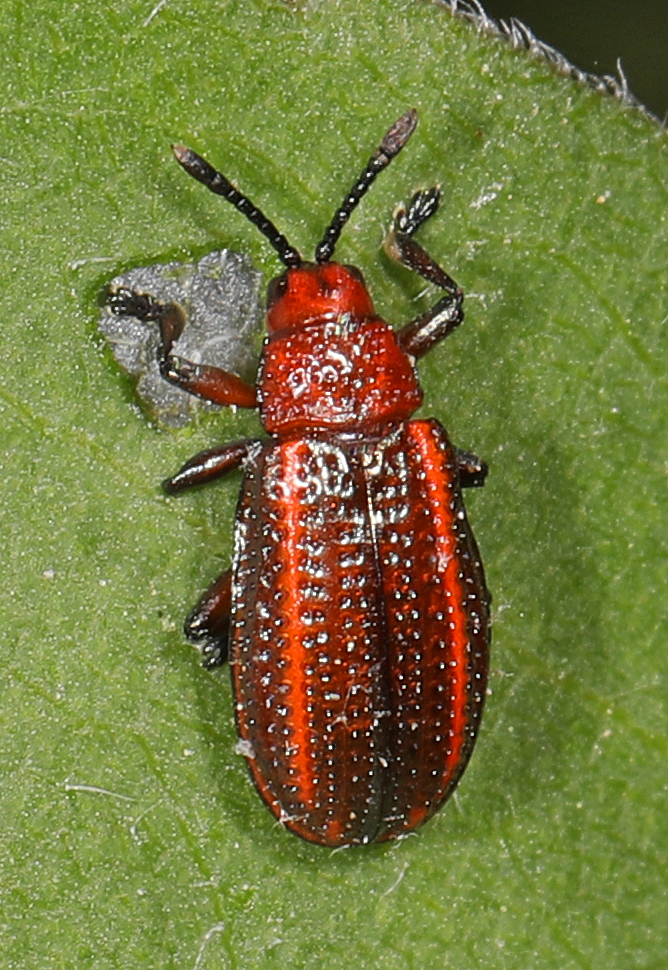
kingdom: Animalia
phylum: Arthropoda
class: Insecta
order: Coleoptera
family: Chrysomelidae
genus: Microrhopala
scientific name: Microrhopala vittata
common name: Goldenrod leaf miner beetle
